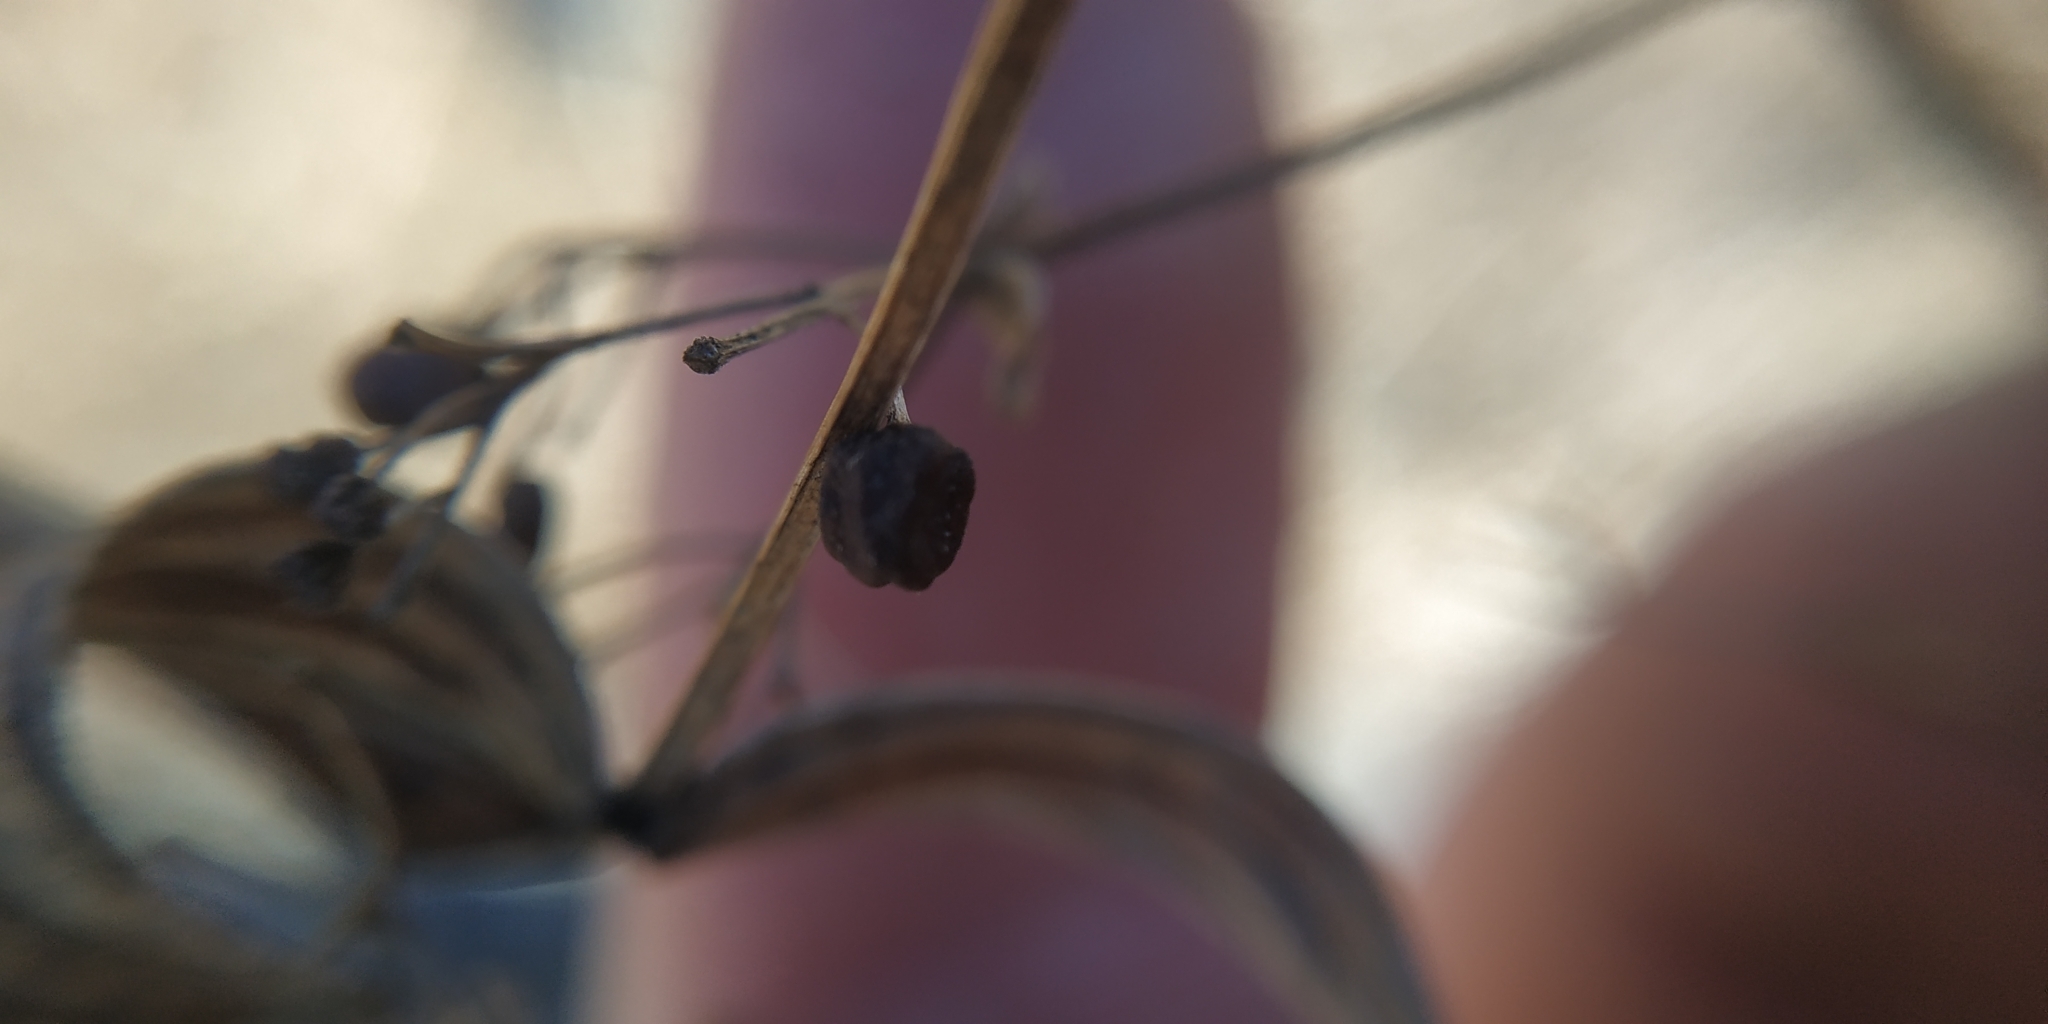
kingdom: Plantae
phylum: Tracheophyta
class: Magnoliopsida
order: Gentianales
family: Rubiaceae
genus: Galium
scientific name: Galium rubioides
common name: European bedstraw
